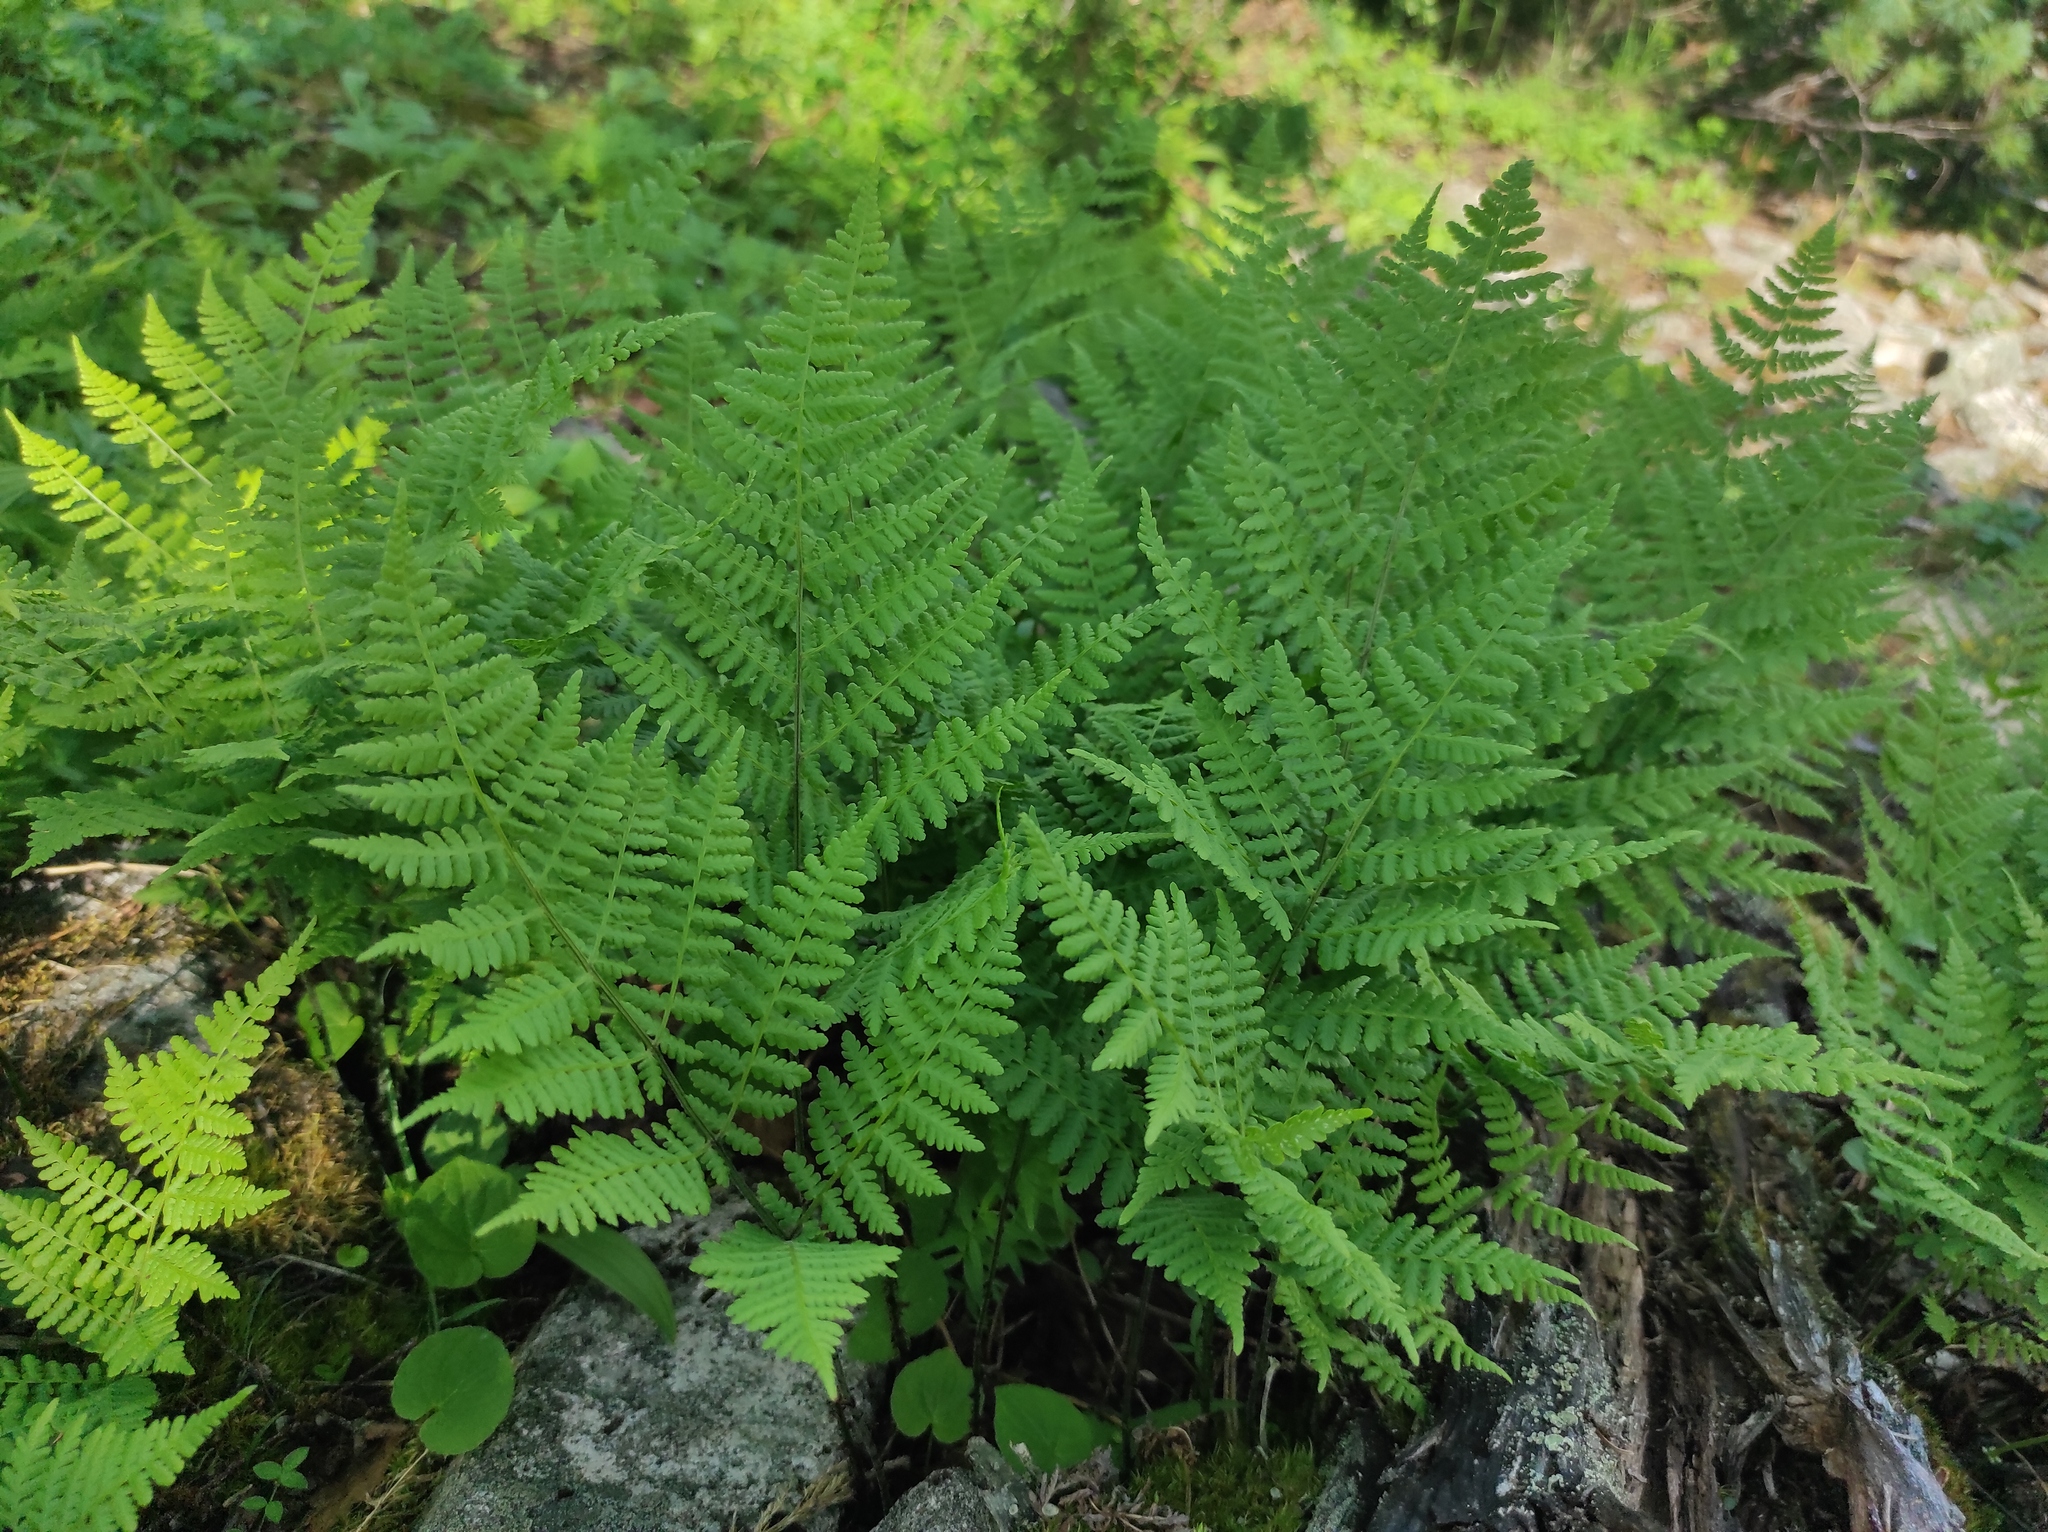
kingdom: Plantae
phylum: Tracheophyta
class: Polypodiopsida
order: Polypodiales
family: Athyriaceae
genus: Diplazium
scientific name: Diplazium sibiricum
